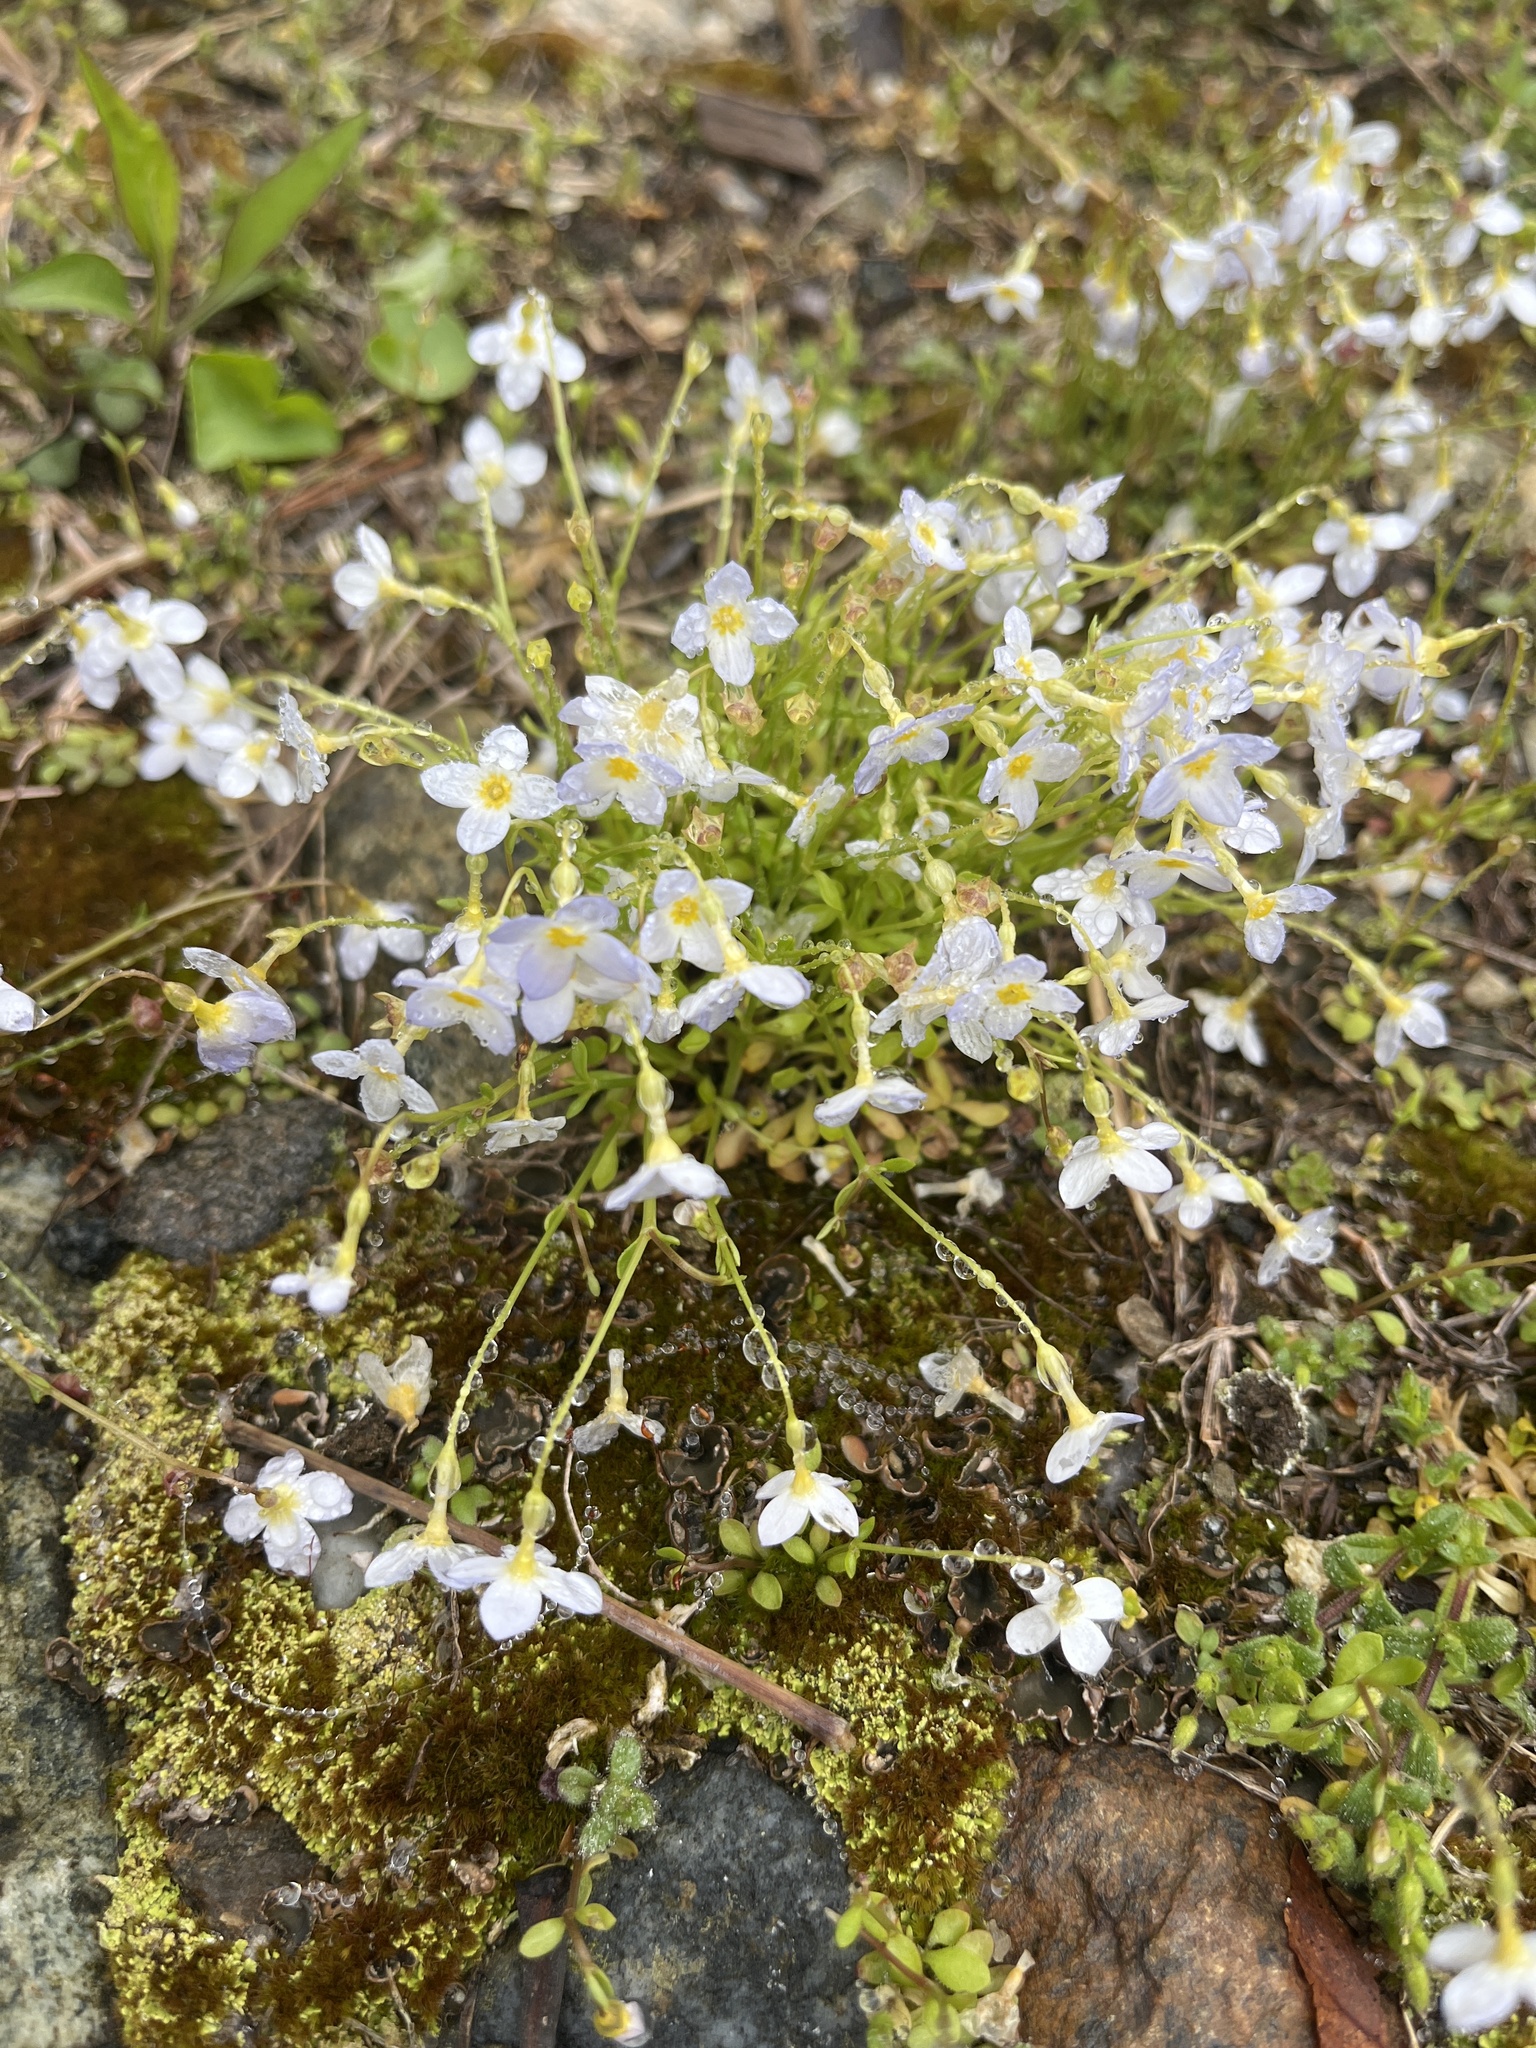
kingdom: Plantae
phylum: Tracheophyta
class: Magnoliopsida
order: Gentianales
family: Rubiaceae
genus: Houstonia
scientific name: Houstonia caerulea
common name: Bluets
